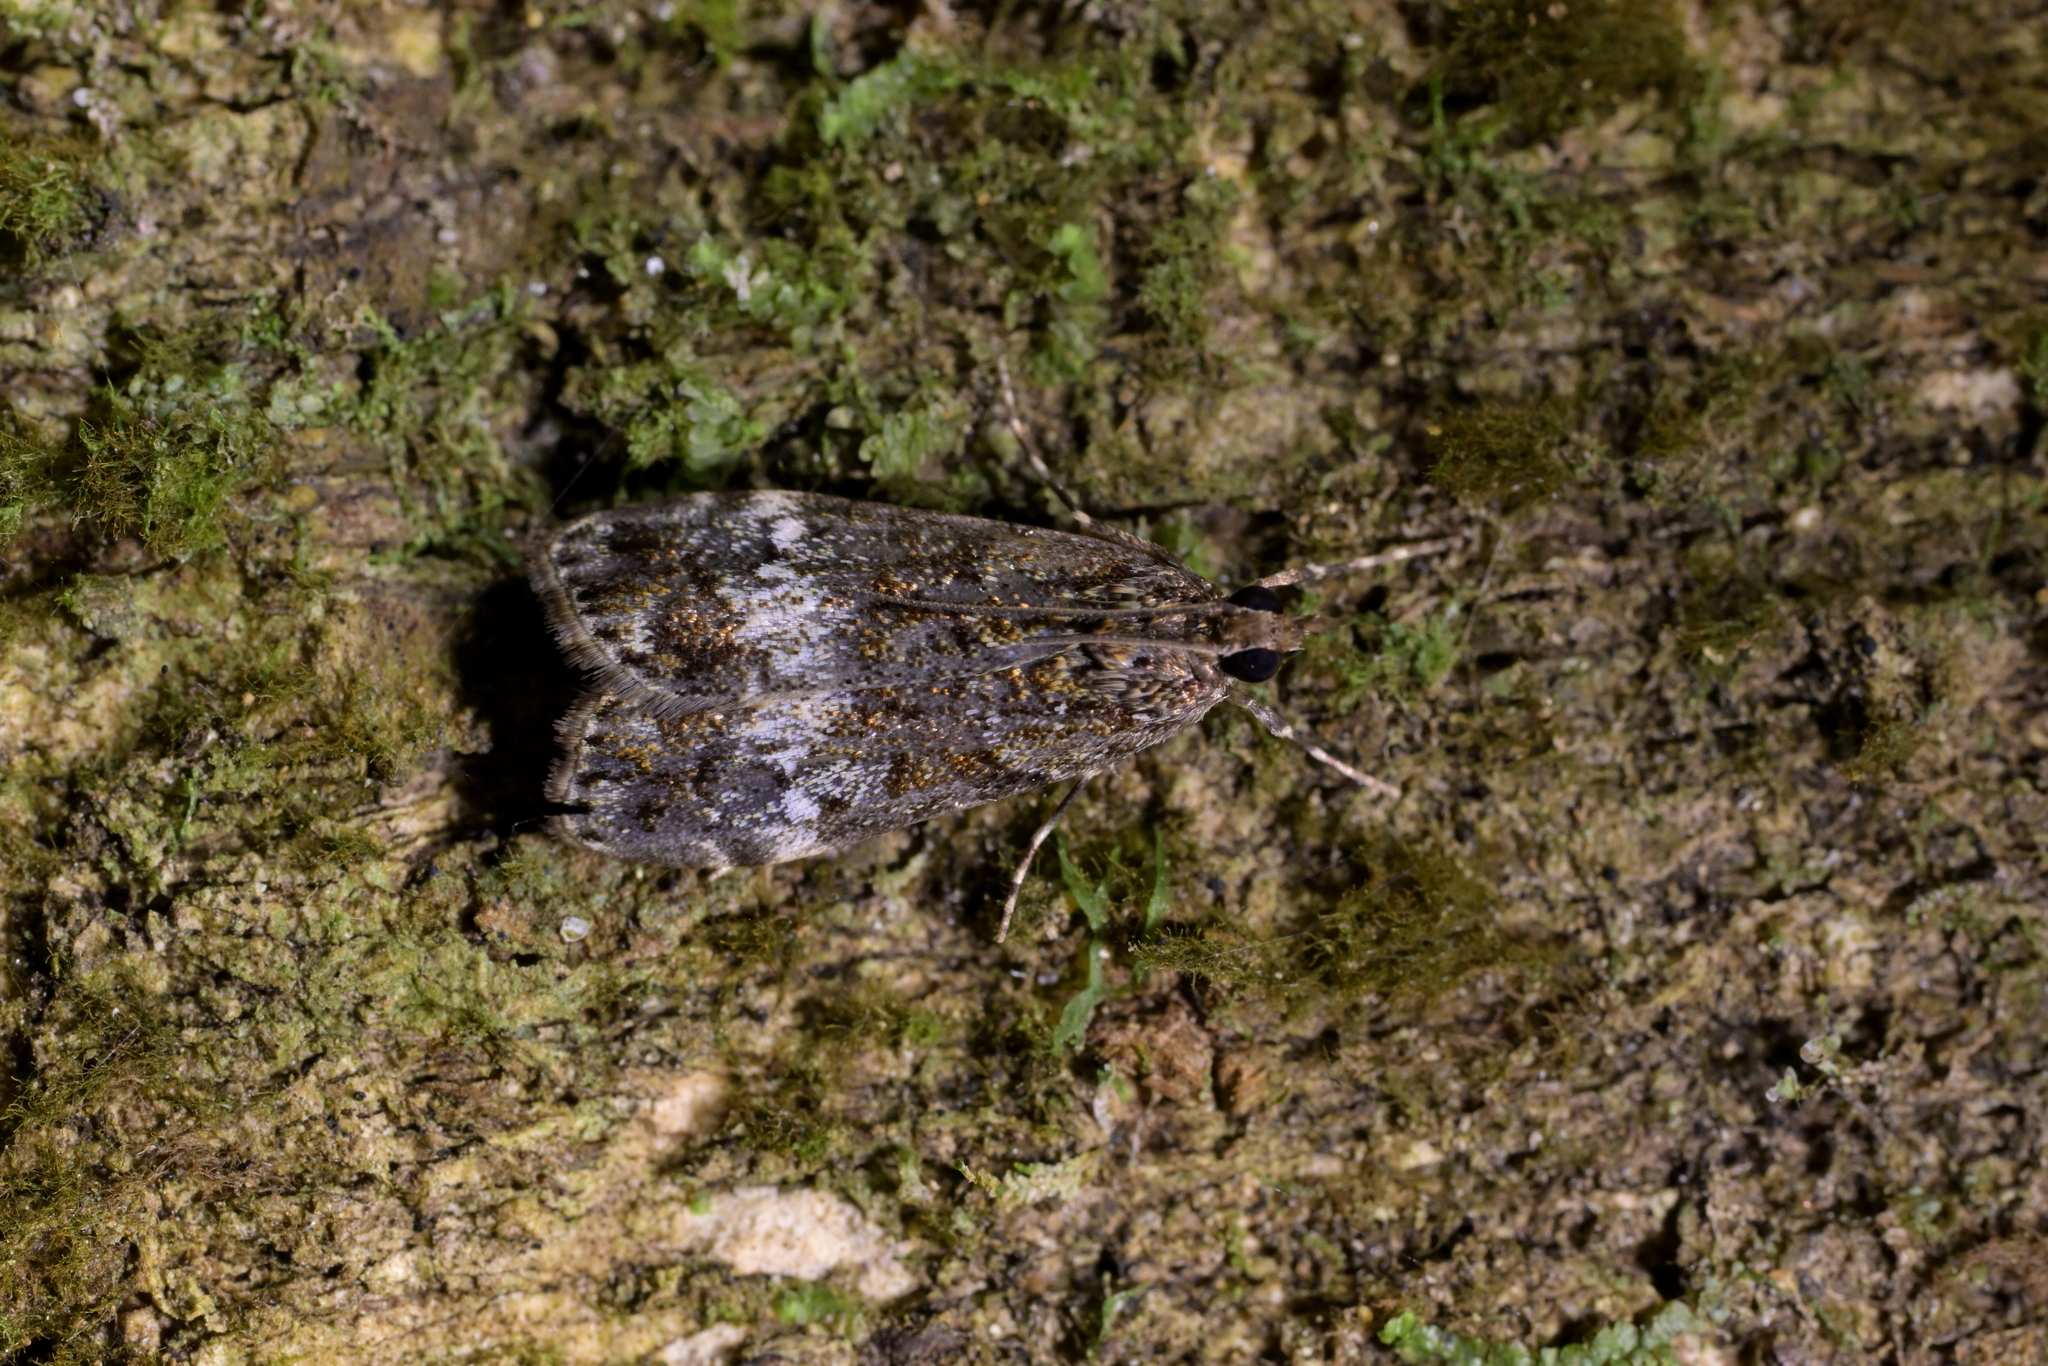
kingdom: Animalia
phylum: Arthropoda
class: Insecta
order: Lepidoptera
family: Crambidae
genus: Eudonia
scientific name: Eudonia dinodes
